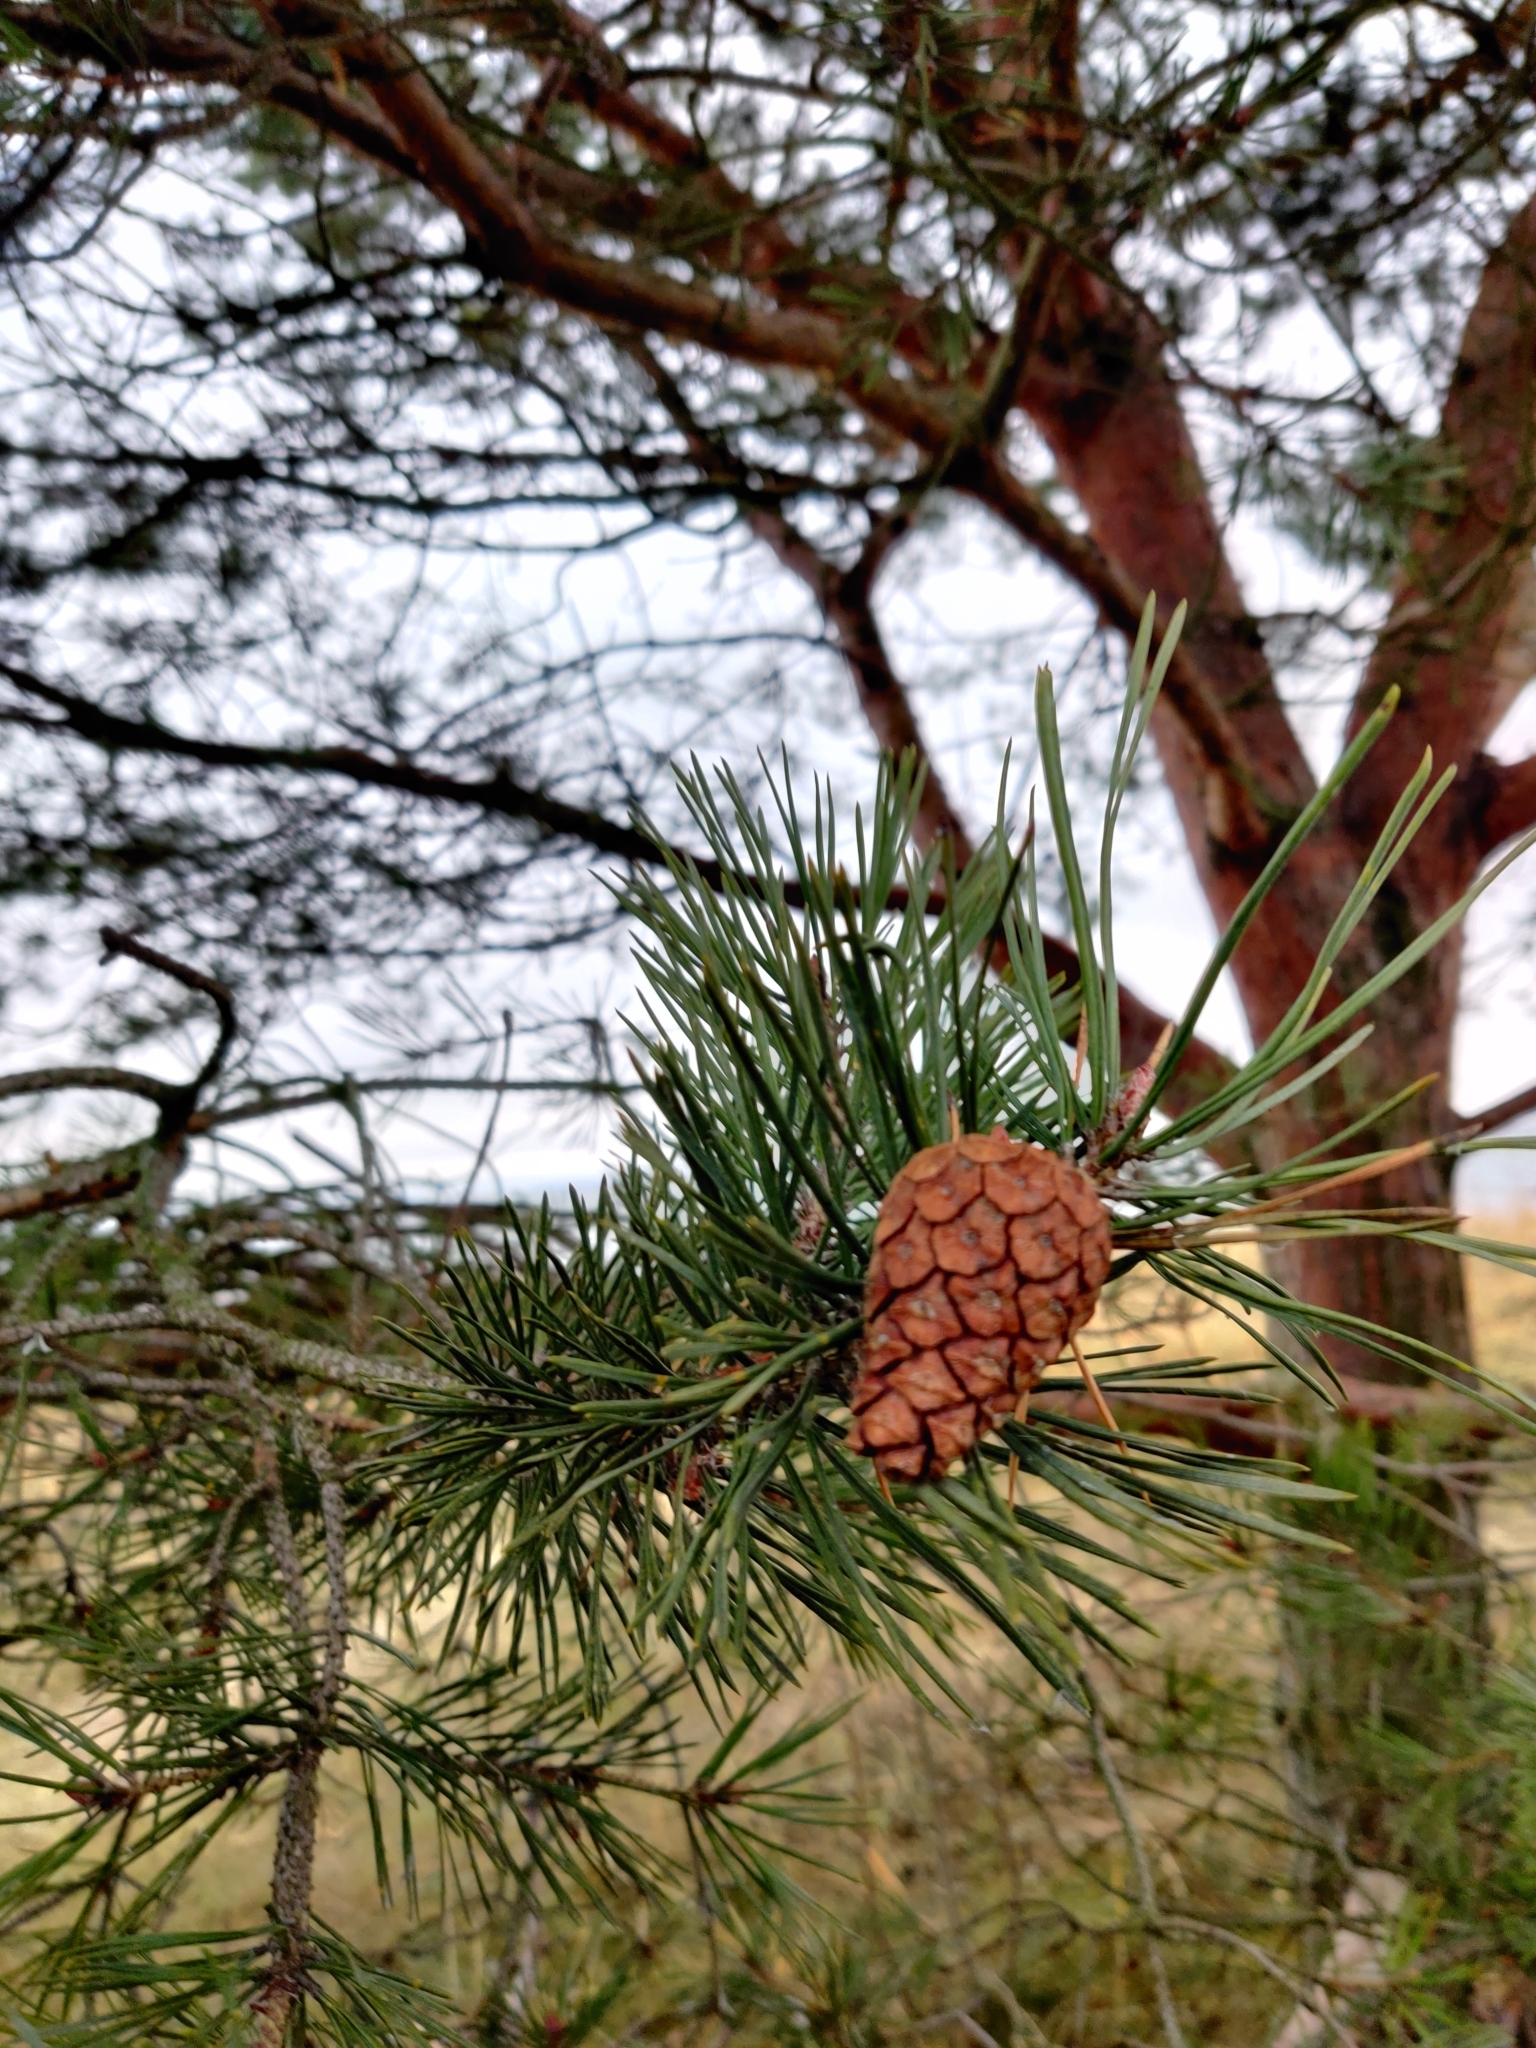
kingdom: Plantae
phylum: Tracheophyta
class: Pinopsida
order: Pinales
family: Pinaceae
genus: Pinus
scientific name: Pinus sylvestris
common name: Scots pine
